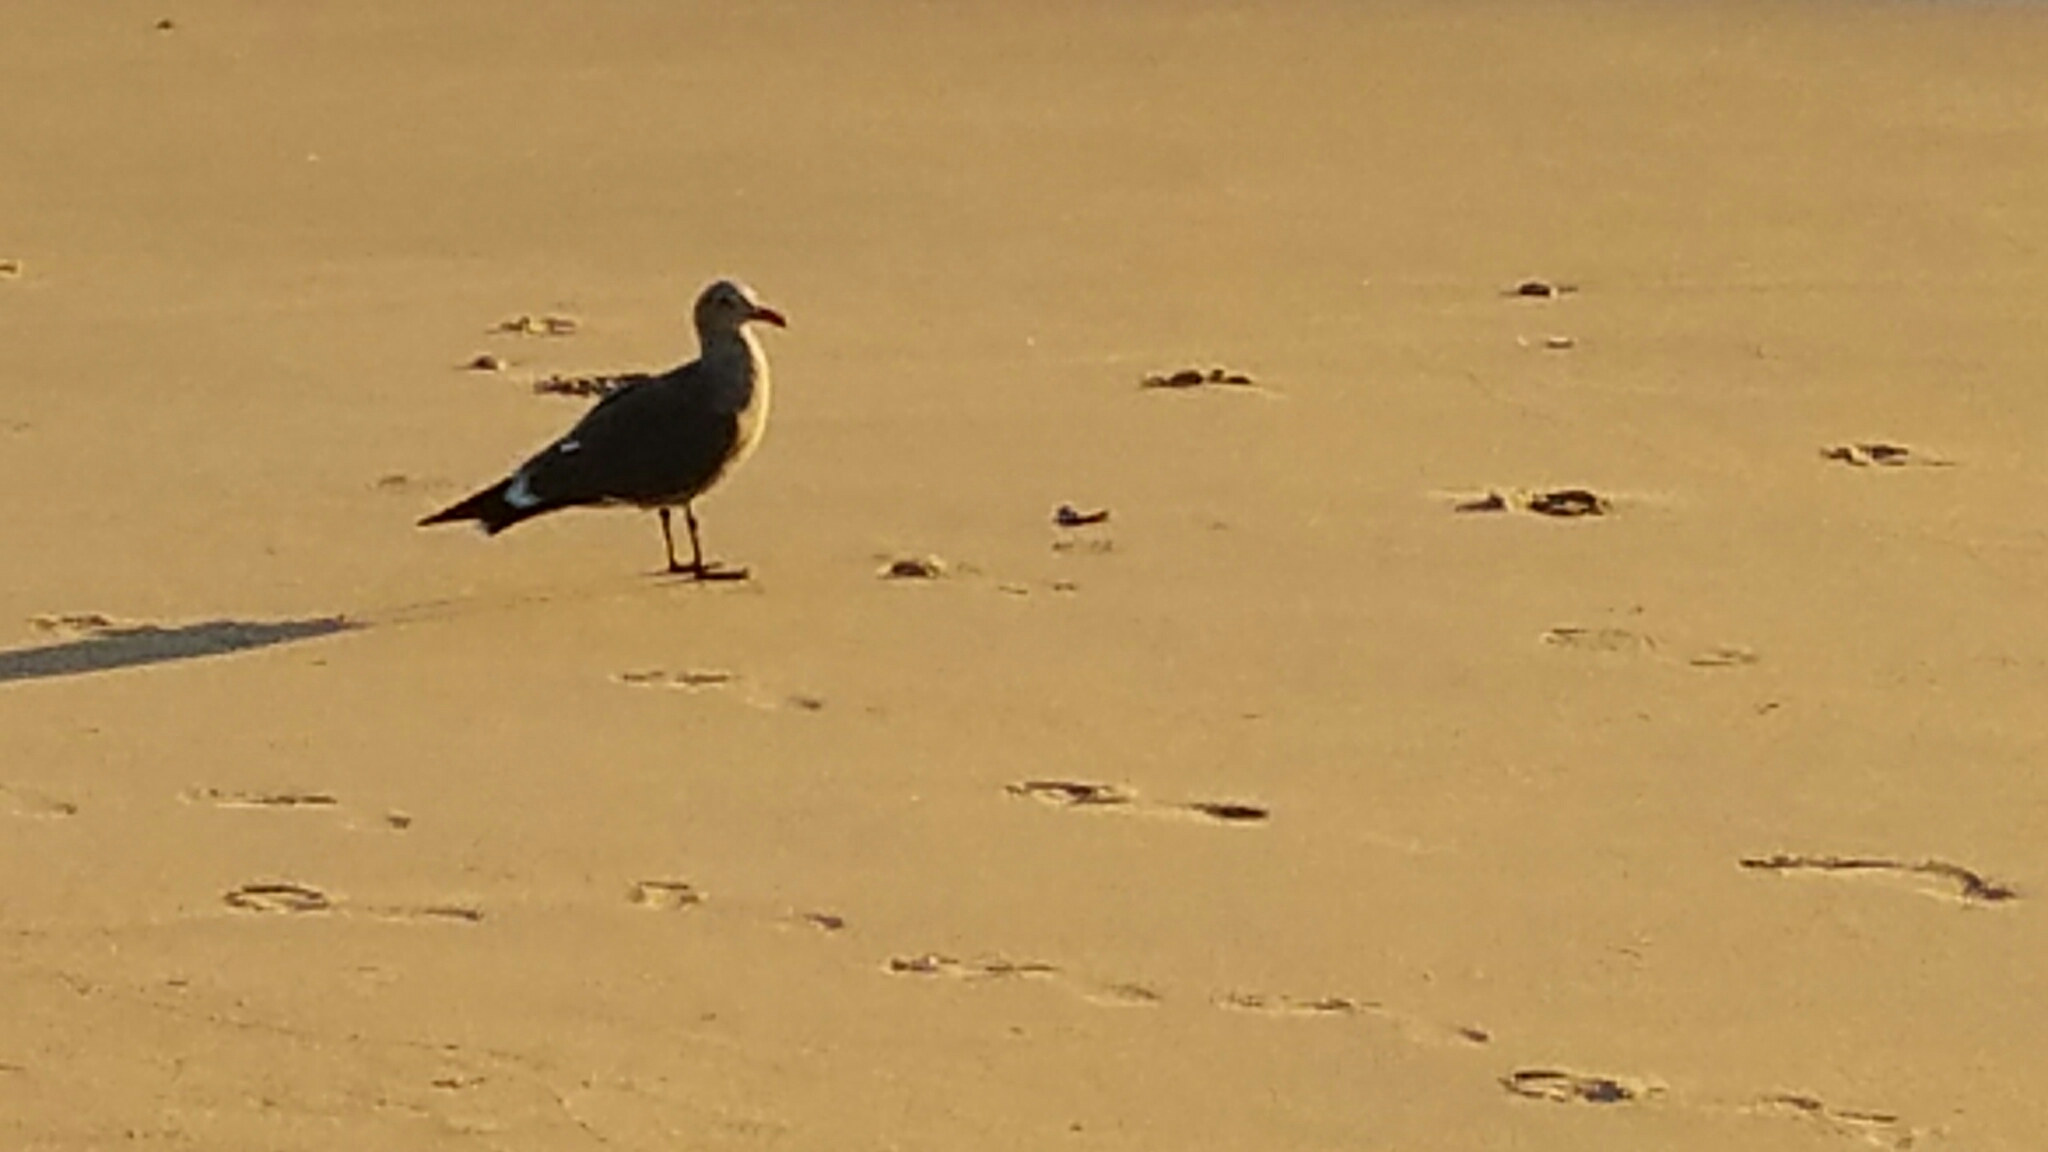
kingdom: Animalia
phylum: Chordata
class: Aves
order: Charadriiformes
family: Laridae
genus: Larus
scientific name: Larus heermanni
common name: Heermann's gull
